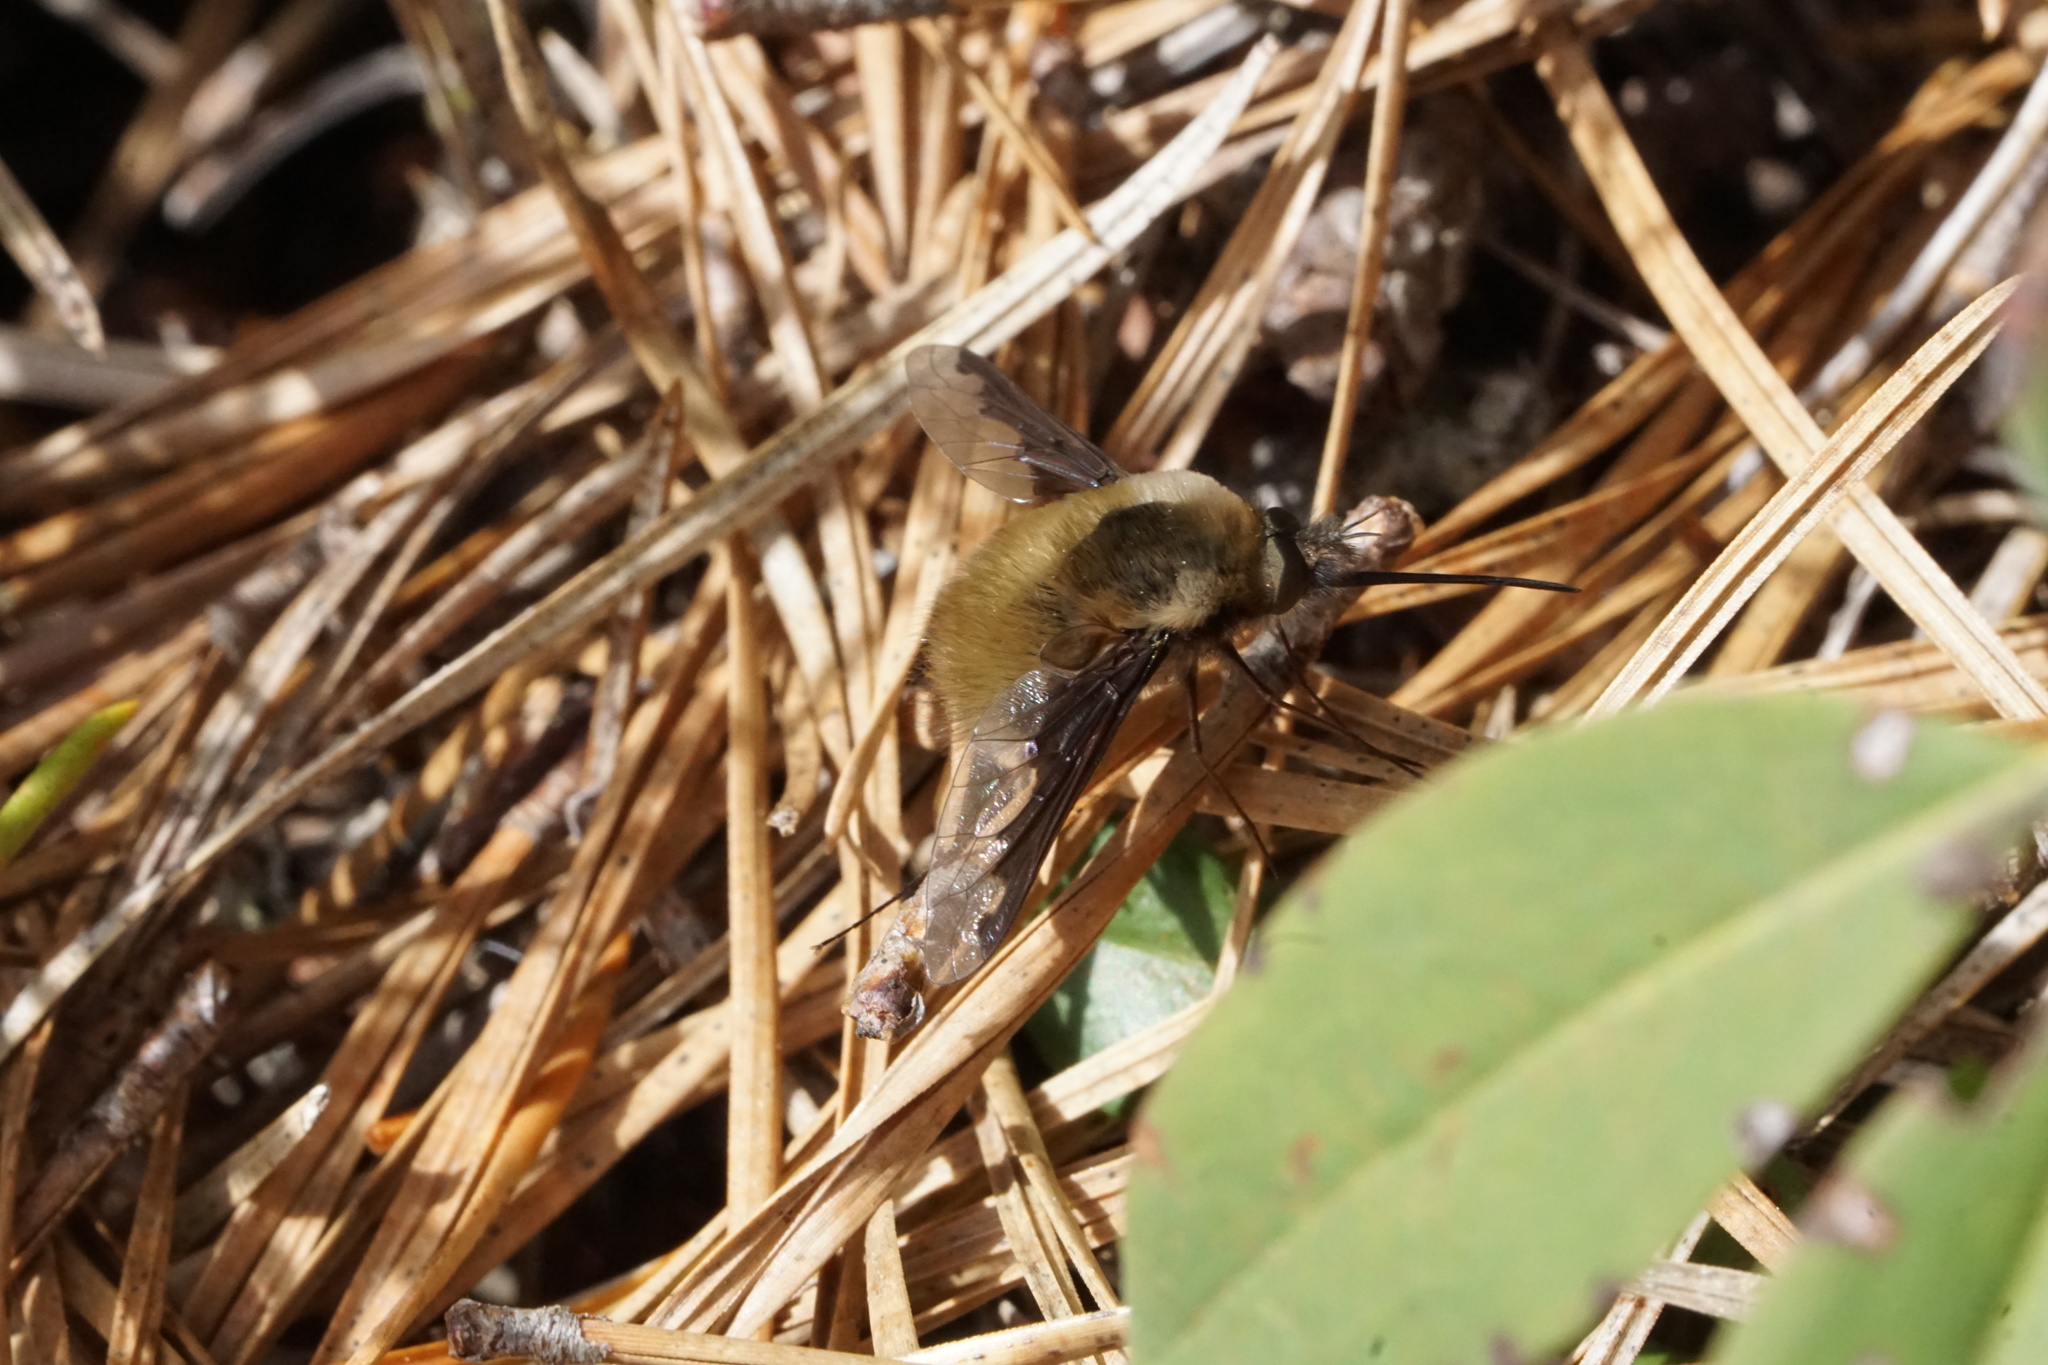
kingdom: Animalia
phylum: Arthropoda
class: Insecta
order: Diptera
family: Bombyliidae
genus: Bombylius
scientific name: Bombylius major
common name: Bee fly
